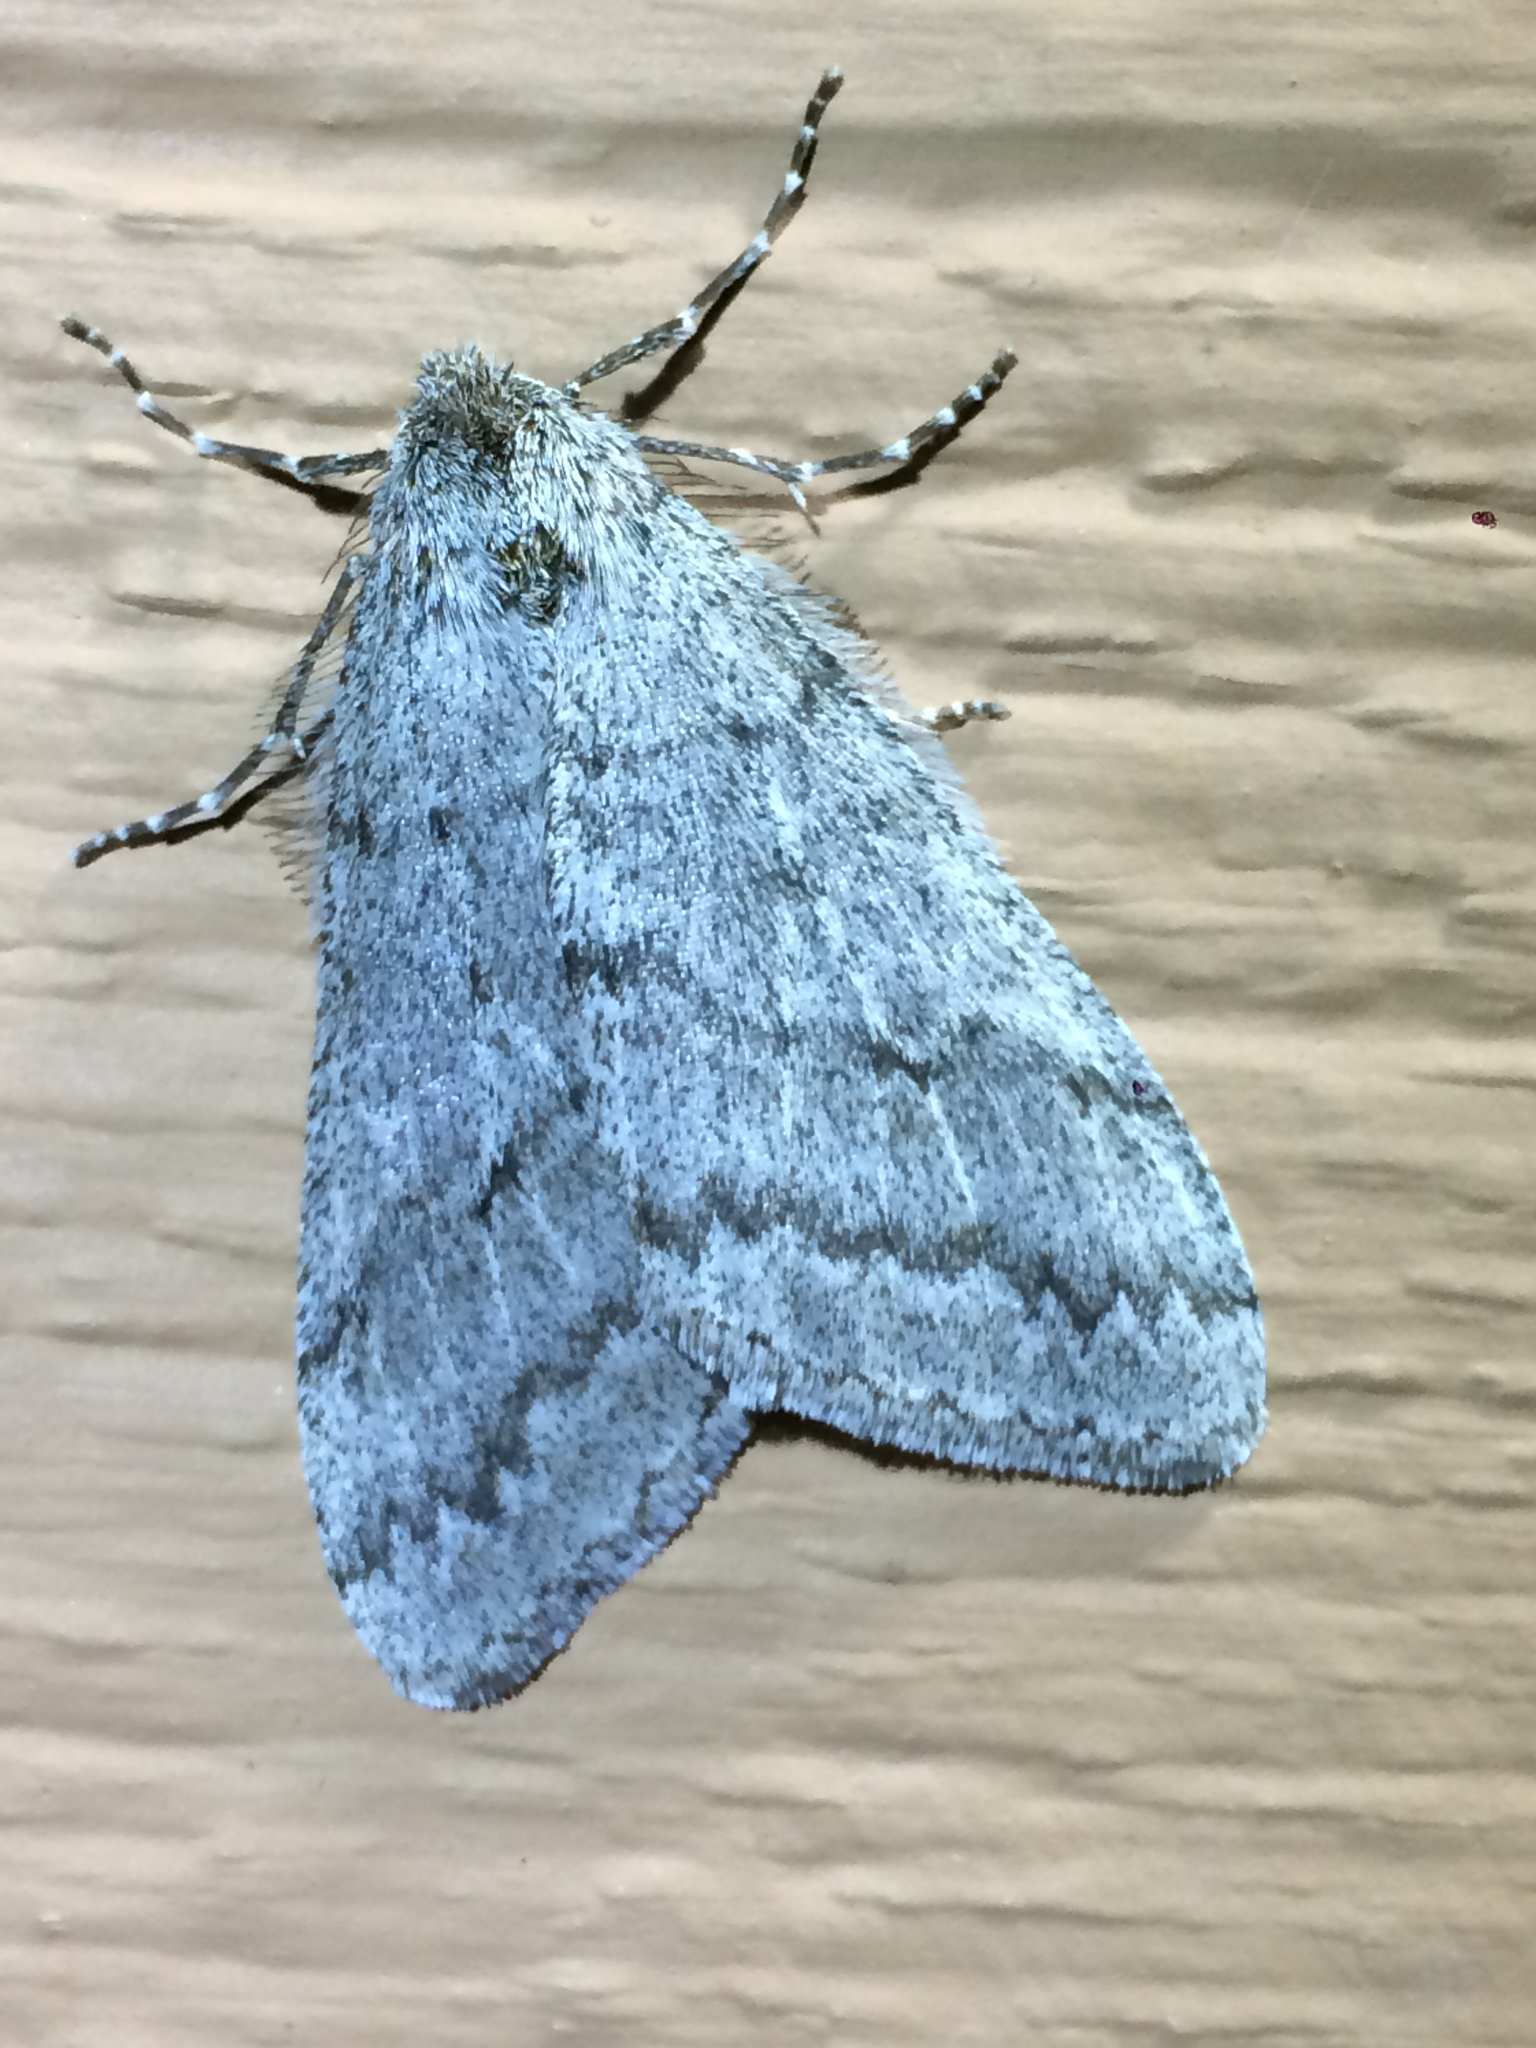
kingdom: Animalia
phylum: Arthropoda
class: Insecta
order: Lepidoptera
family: Geometridae
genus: Phigalia
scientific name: Phigalia plumogeraria
